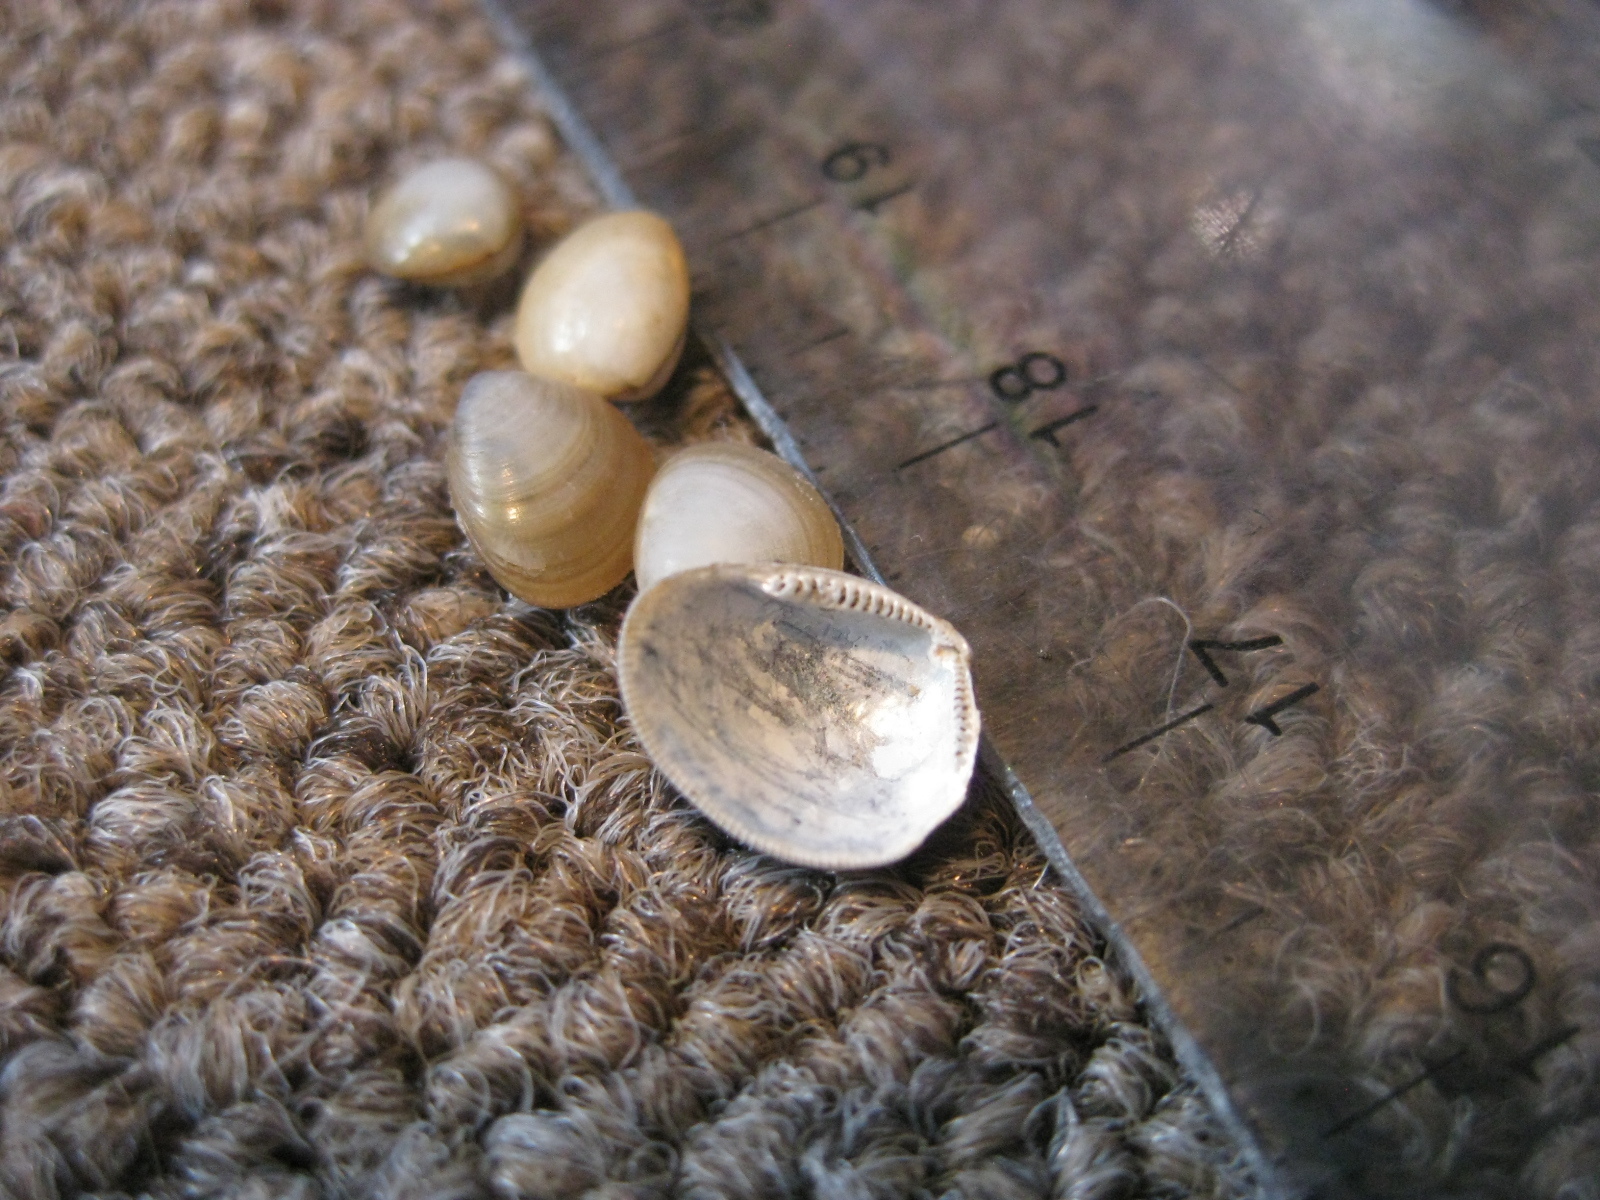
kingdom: Animalia
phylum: Mollusca
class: Bivalvia
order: Nuculida
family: Nuculidae
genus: Nucula
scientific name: Nucula nitidula
